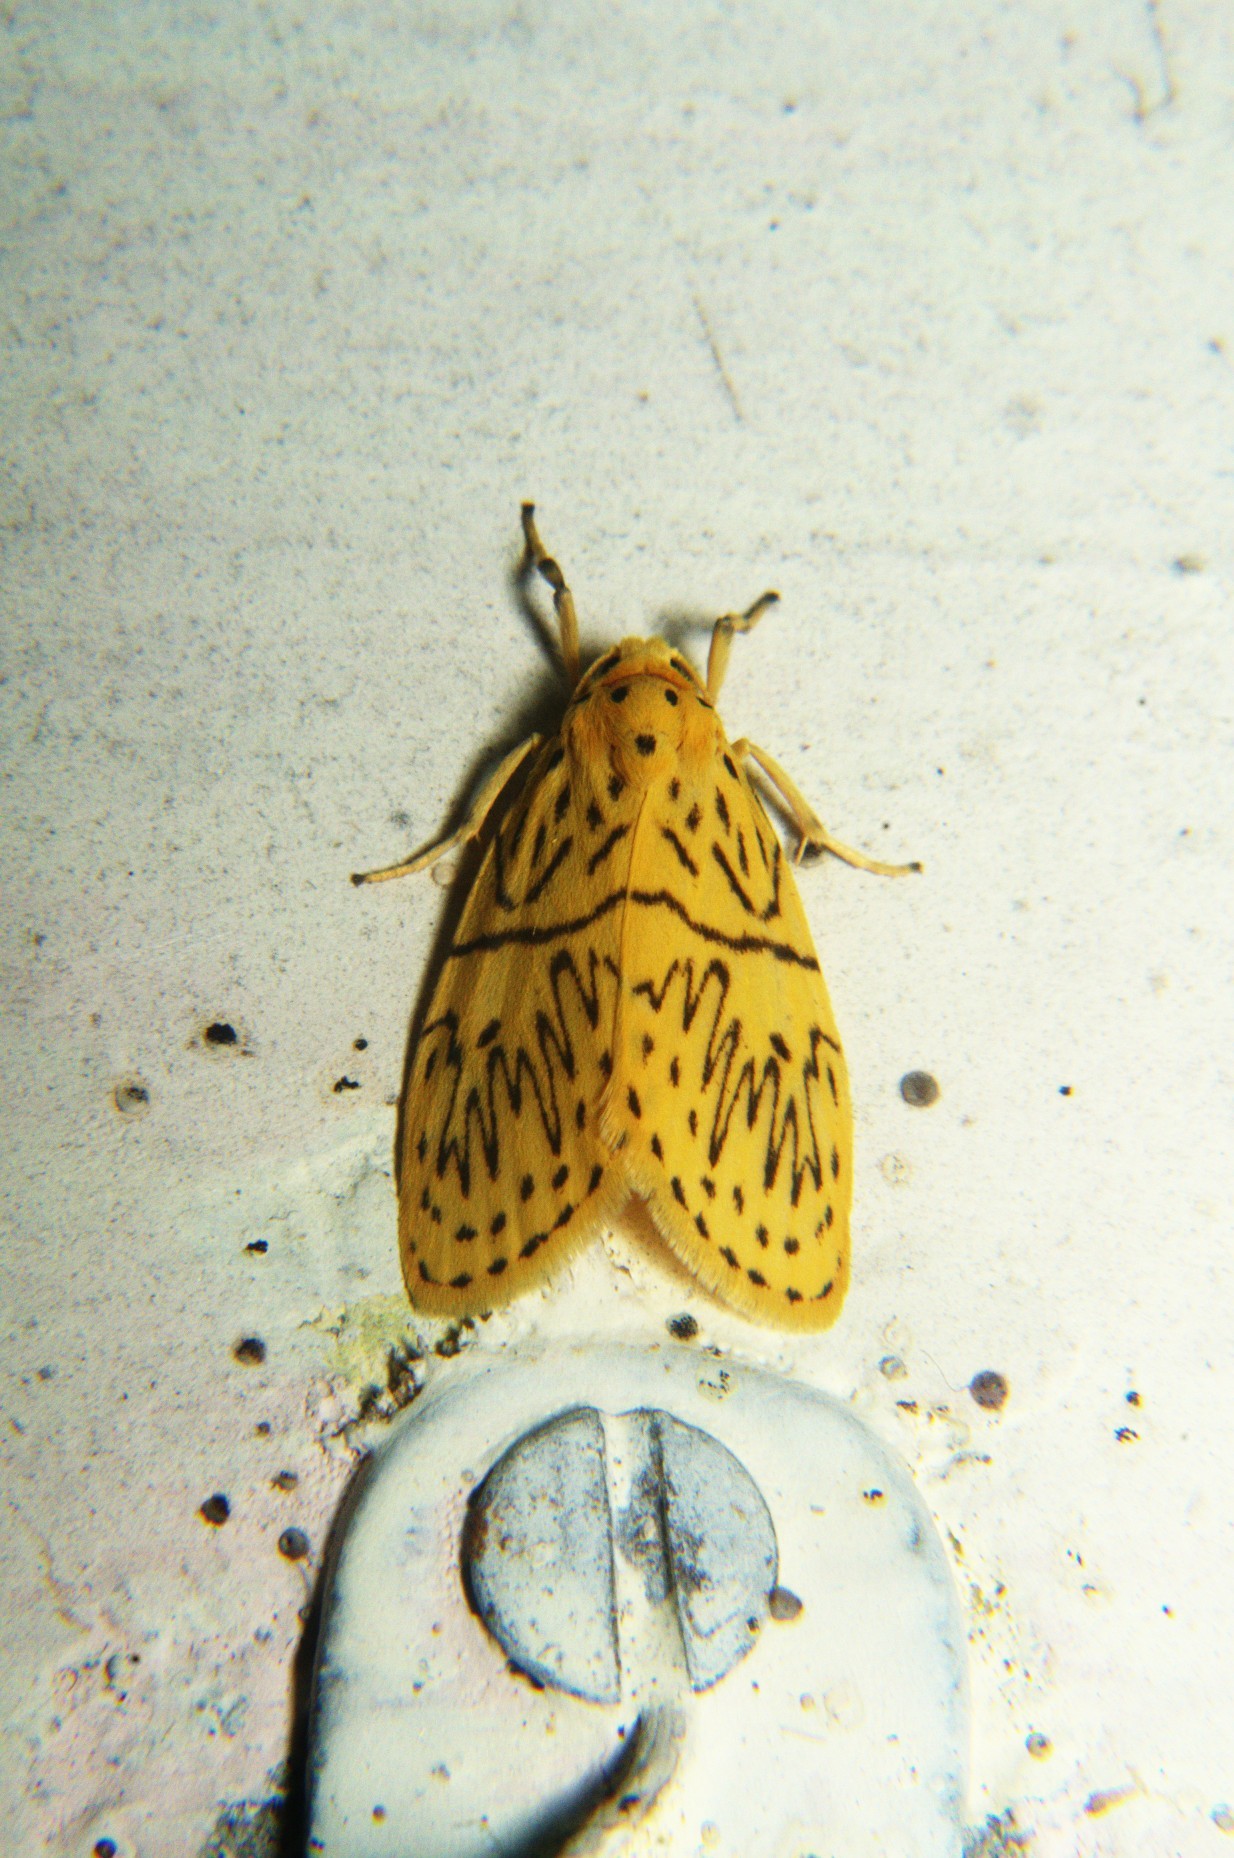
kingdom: Animalia
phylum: Arthropoda
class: Insecta
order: Lepidoptera
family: Erebidae
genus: Miltochrista
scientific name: Miltochrista undulosa
